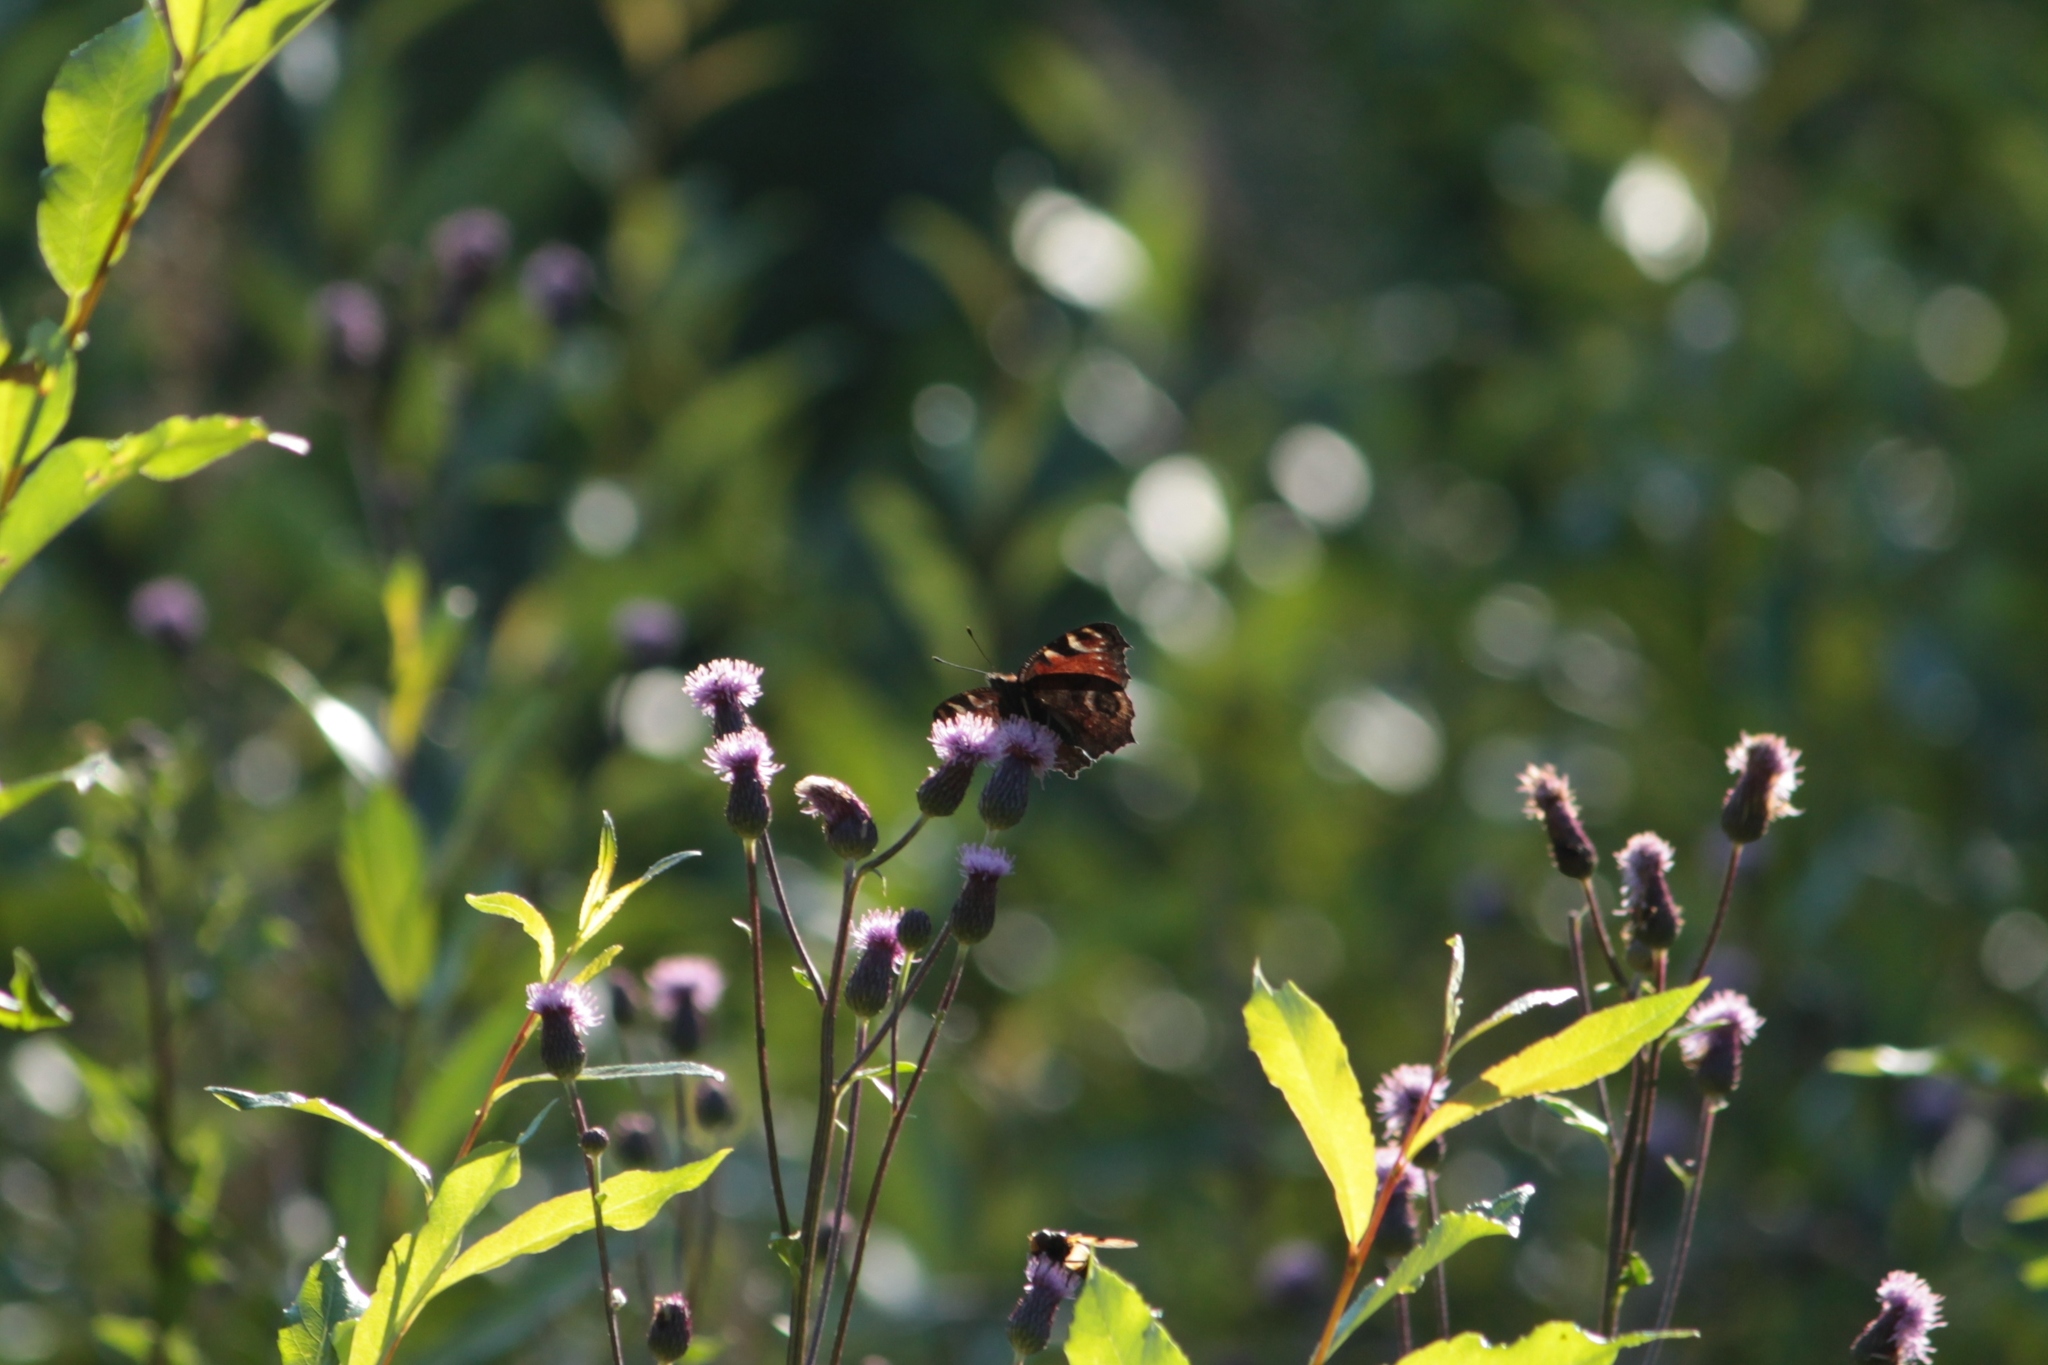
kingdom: Animalia
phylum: Arthropoda
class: Insecta
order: Lepidoptera
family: Nymphalidae
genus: Aglais
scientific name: Aglais io
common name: Peacock
